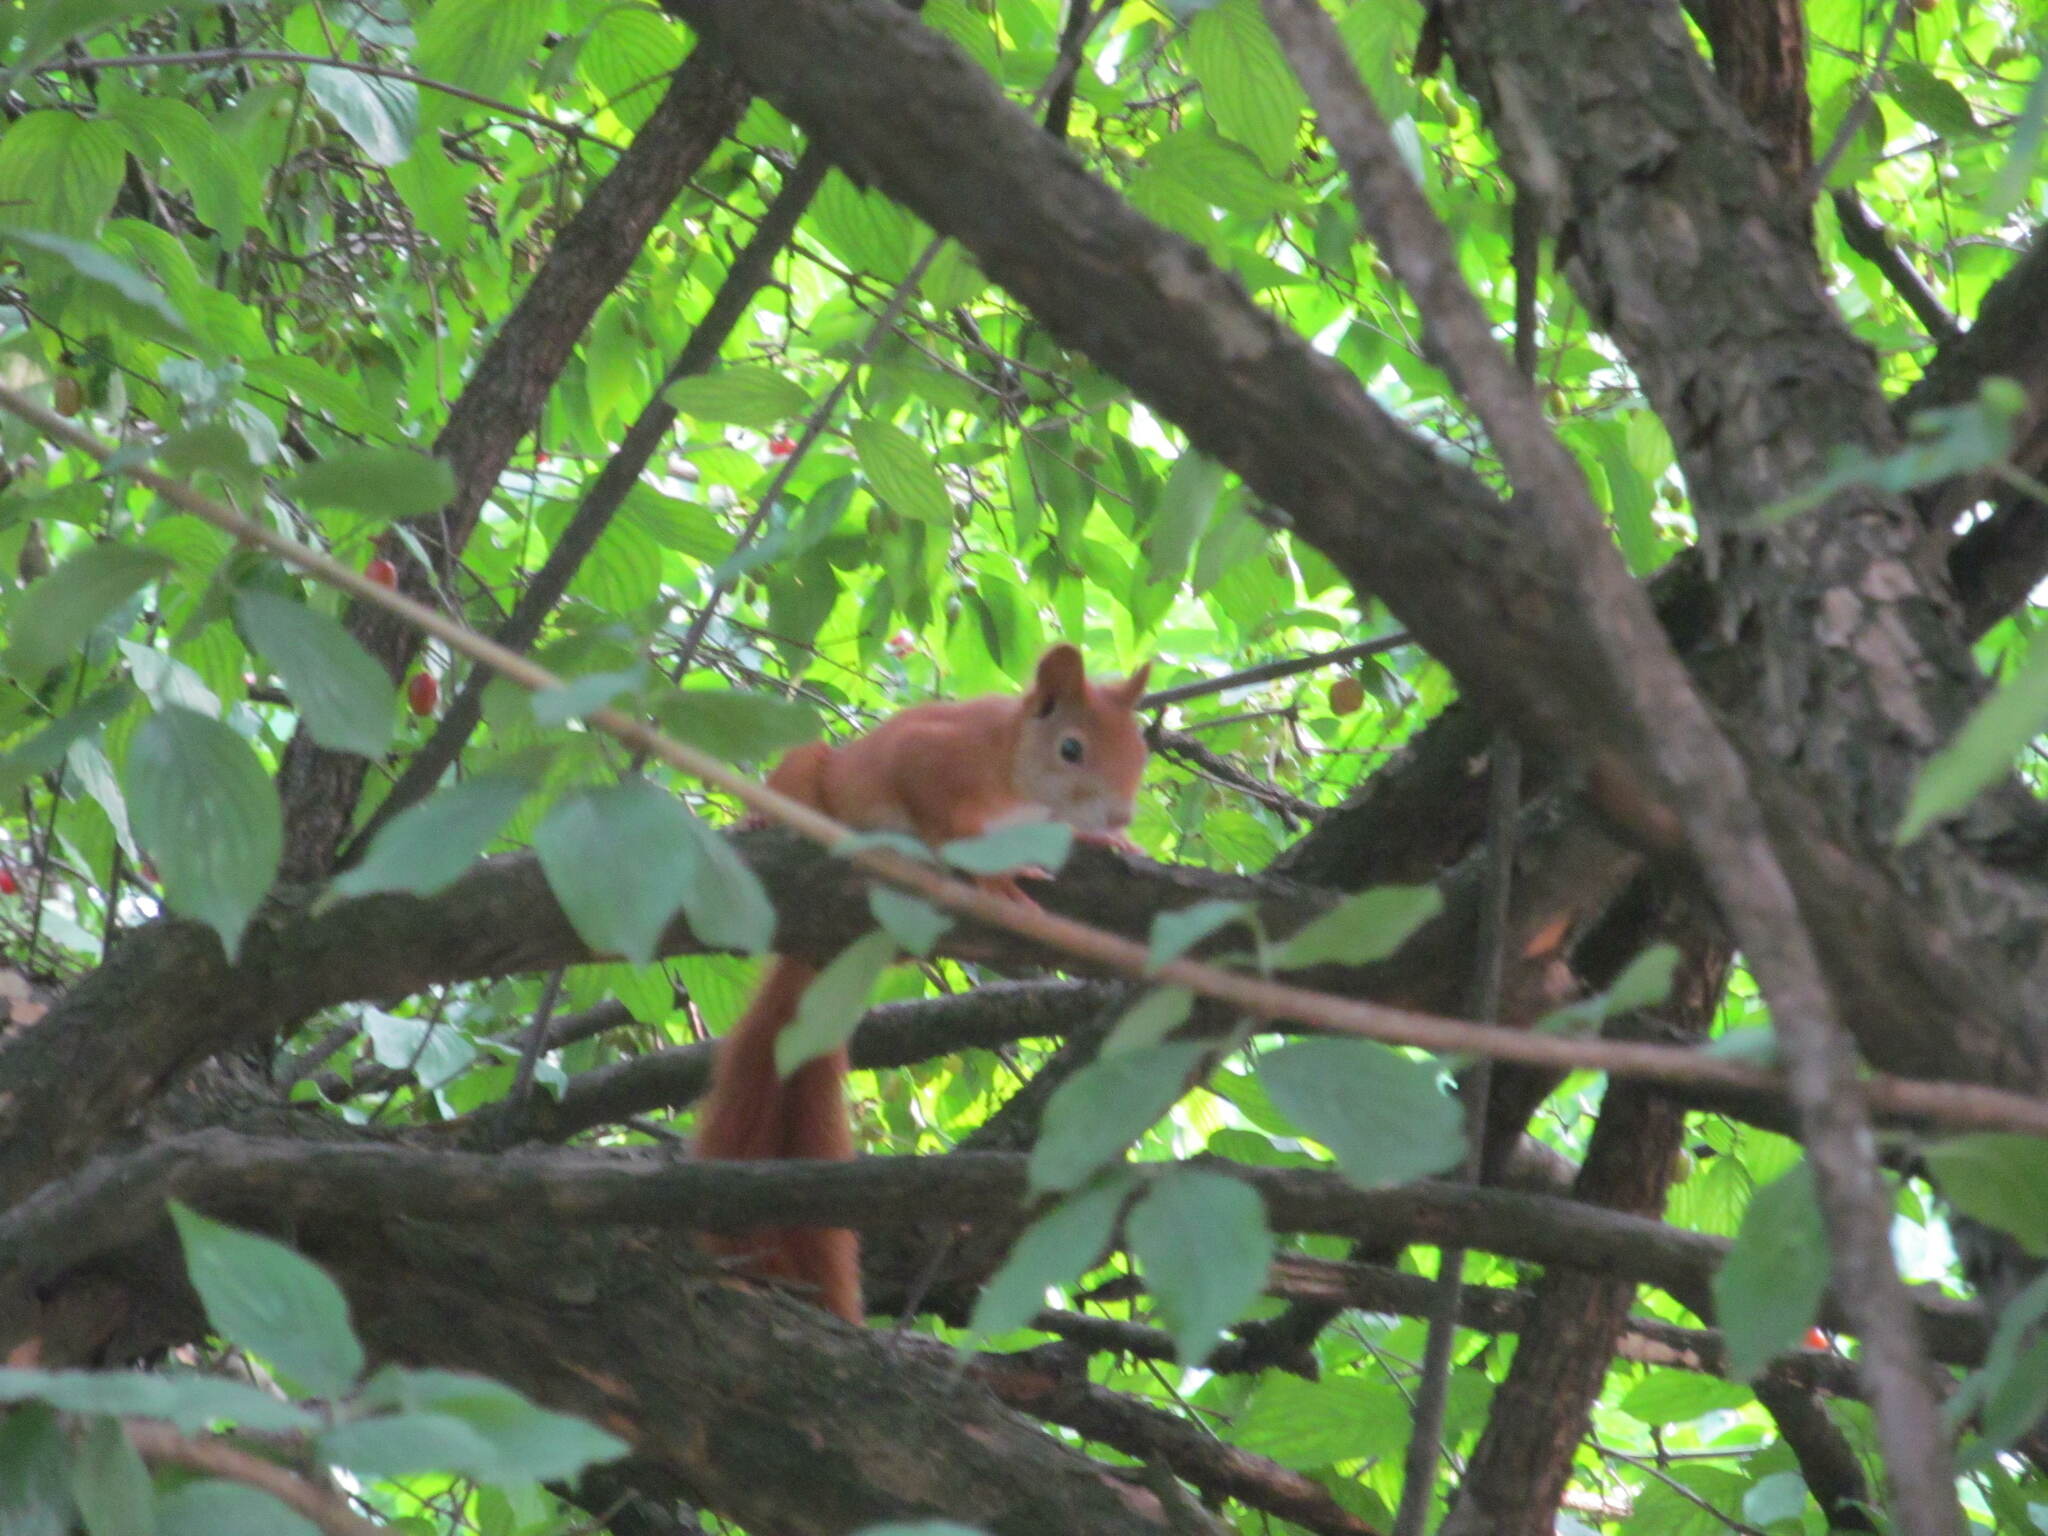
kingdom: Animalia
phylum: Chordata
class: Mammalia
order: Rodentia
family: Sciuridae
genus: Sciurus
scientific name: Sciurus vulgaris
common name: Eurasian red squirrel
